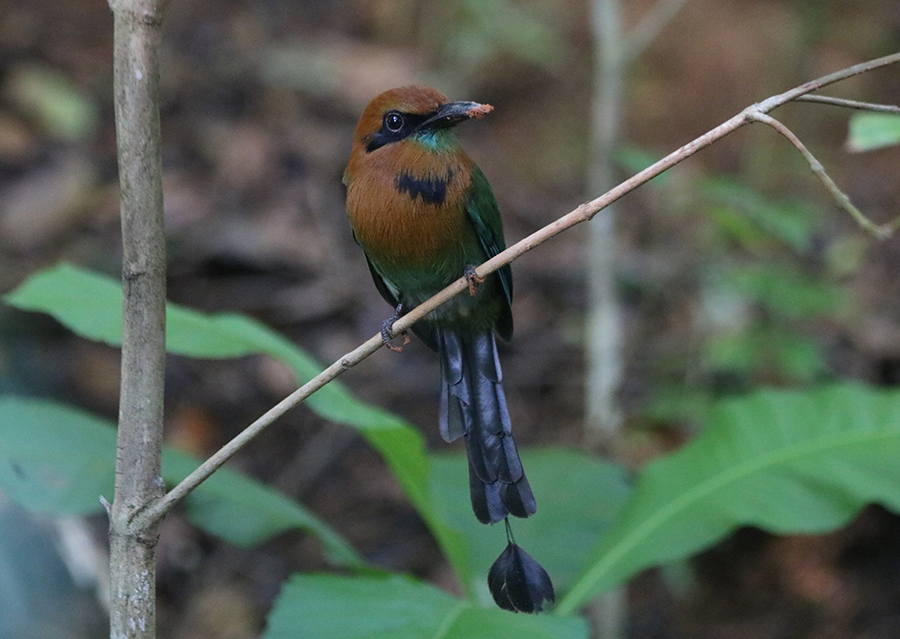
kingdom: Animalia
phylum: Chordata
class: Aves
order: Coraciiformes
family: Momotidae
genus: Electron
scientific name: Electron platyrhynchum
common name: Broad-billed motmot
